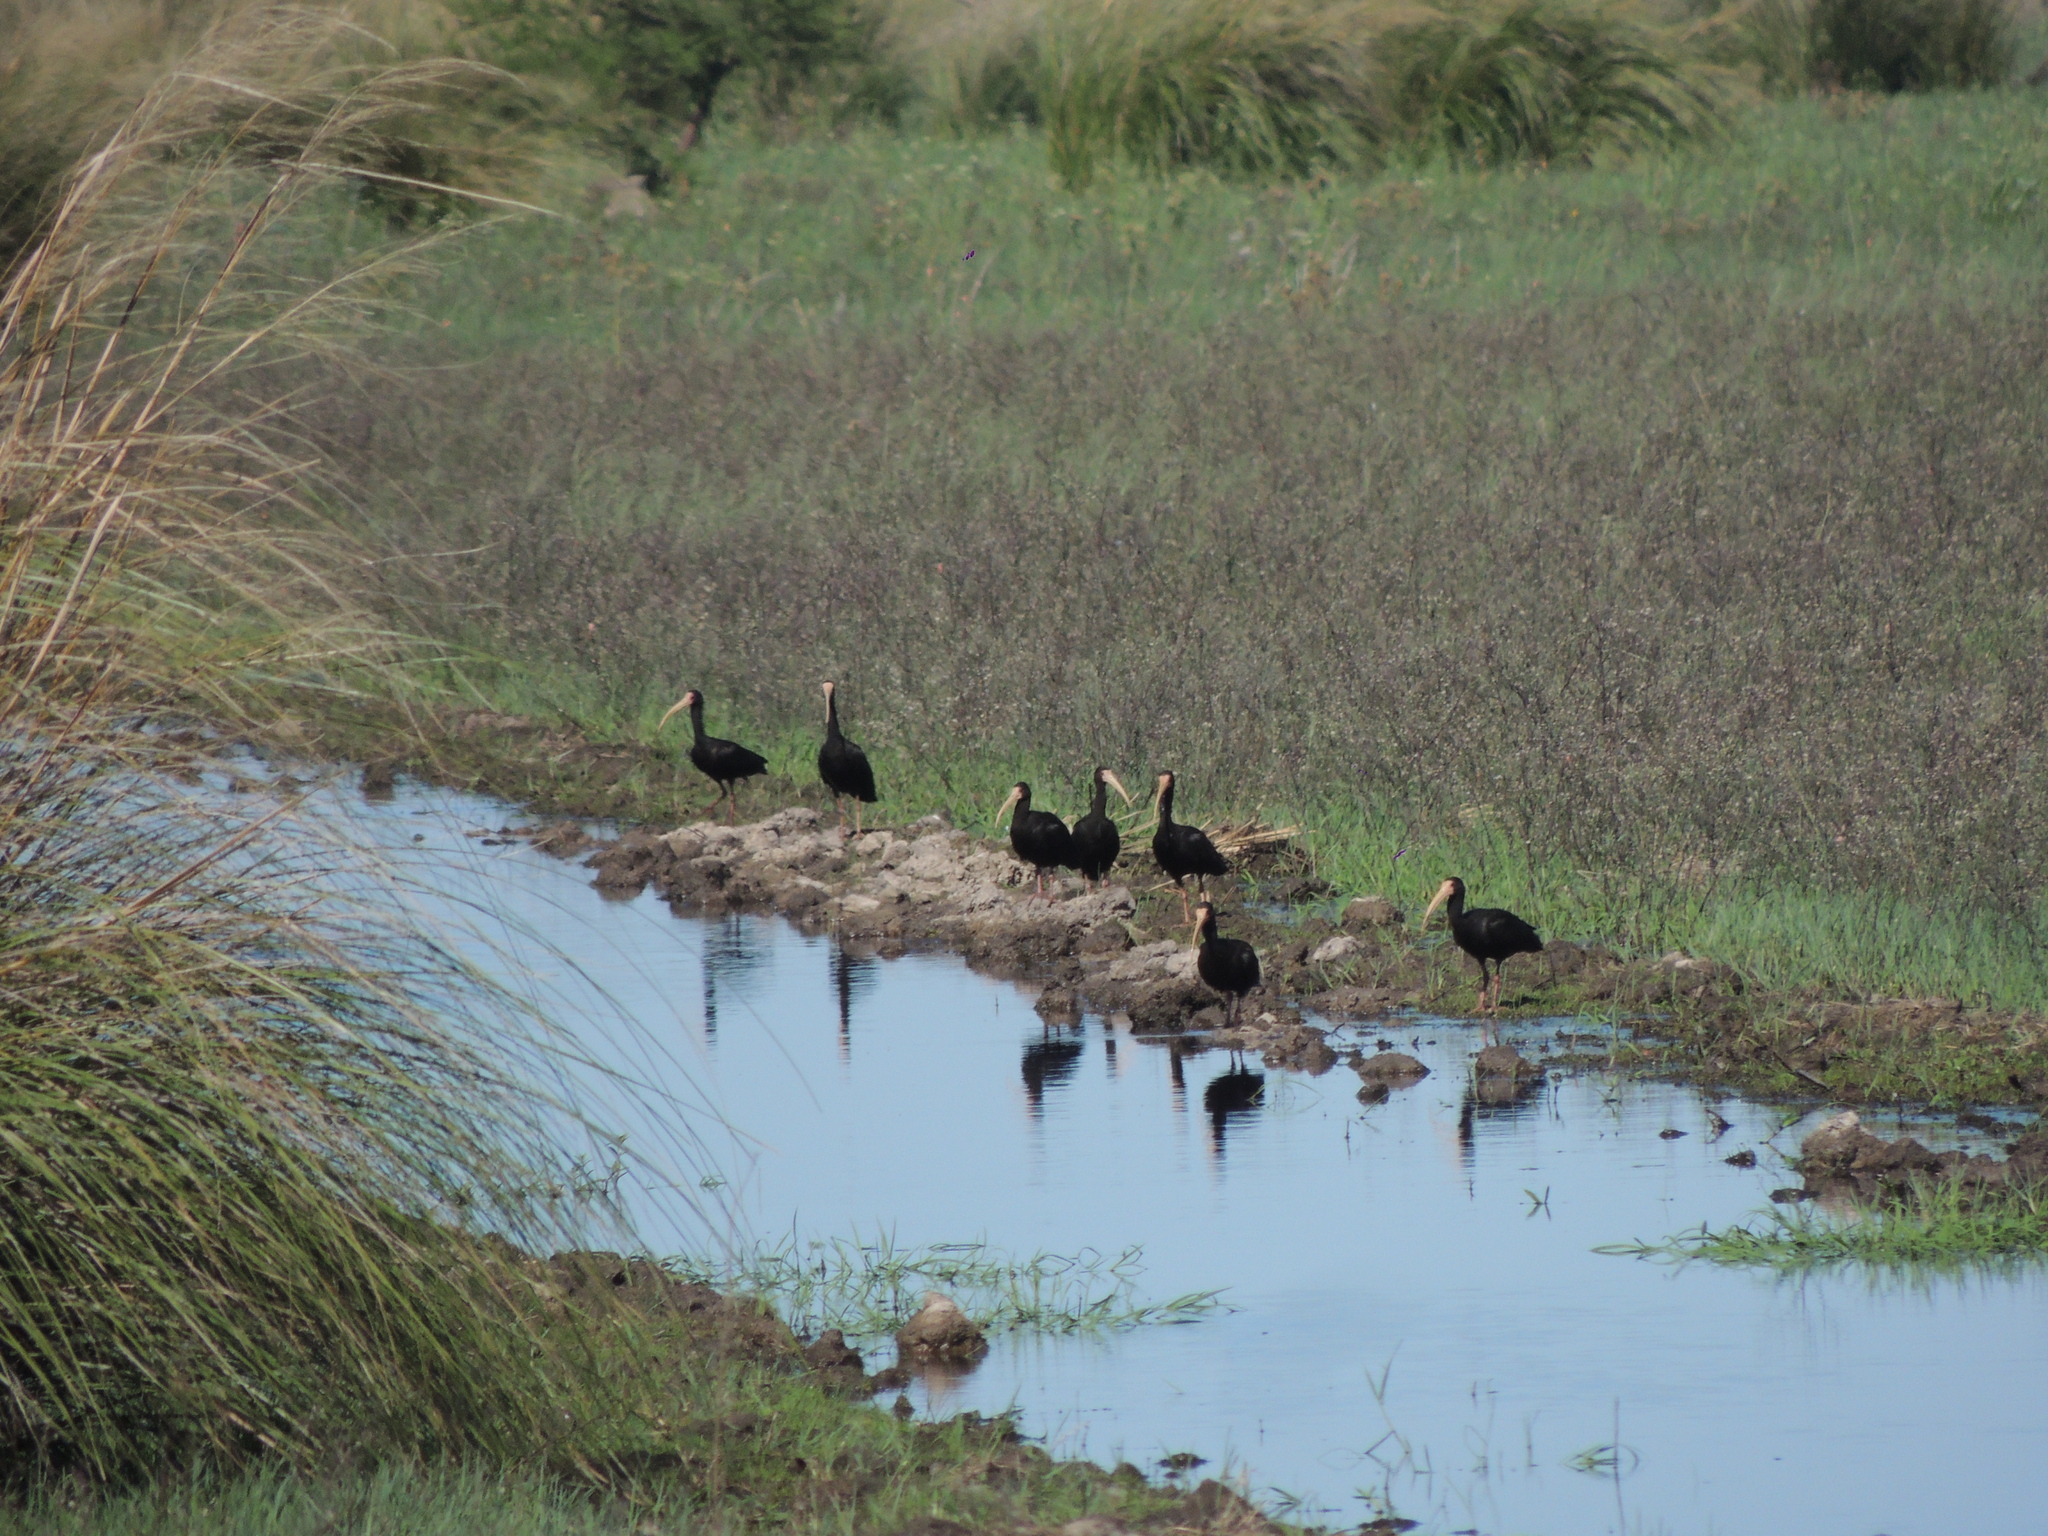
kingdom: Animalia
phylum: Chordata
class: Aves
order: Pelecaniformes
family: Threskiornithidae
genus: Phimosus
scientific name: Phimosus infuscatus
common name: Bare-faced ibis
